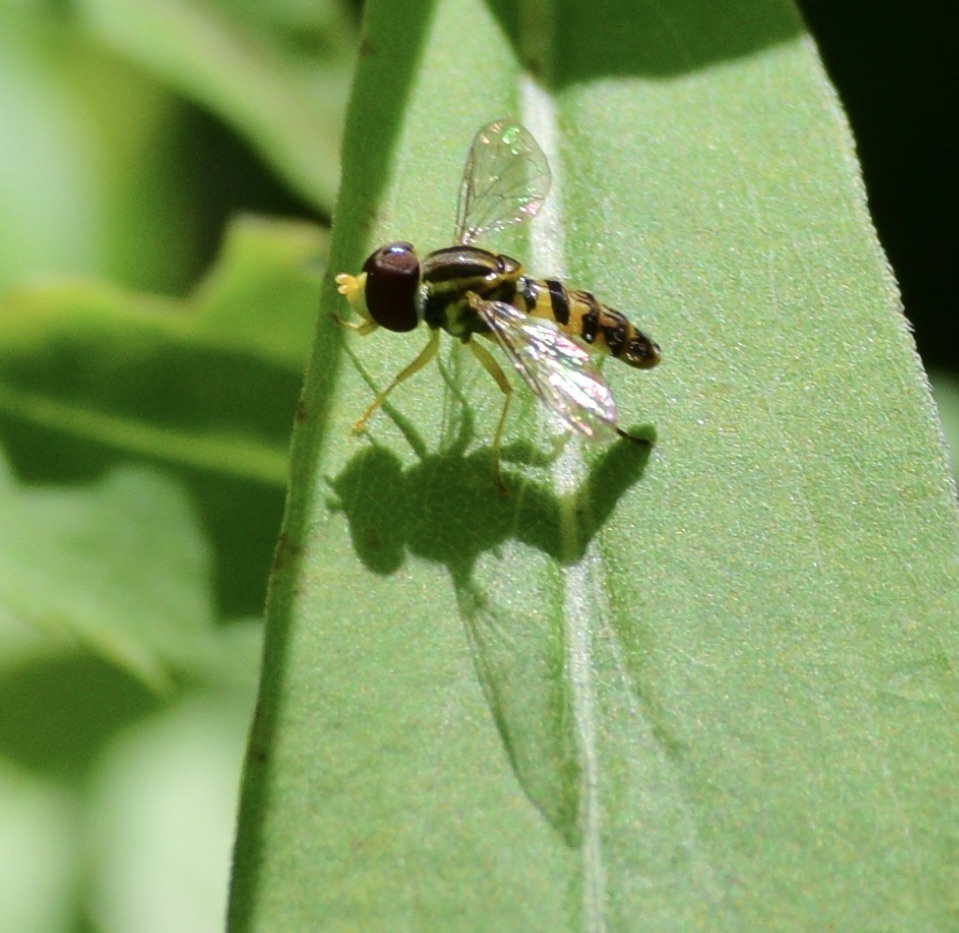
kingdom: Animalia
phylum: Arthropoda
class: Insecta
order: Diptera
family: Syrphidae
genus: Toxomerus
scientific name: Toxomerus geminatus
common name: Eastern calligrapher
